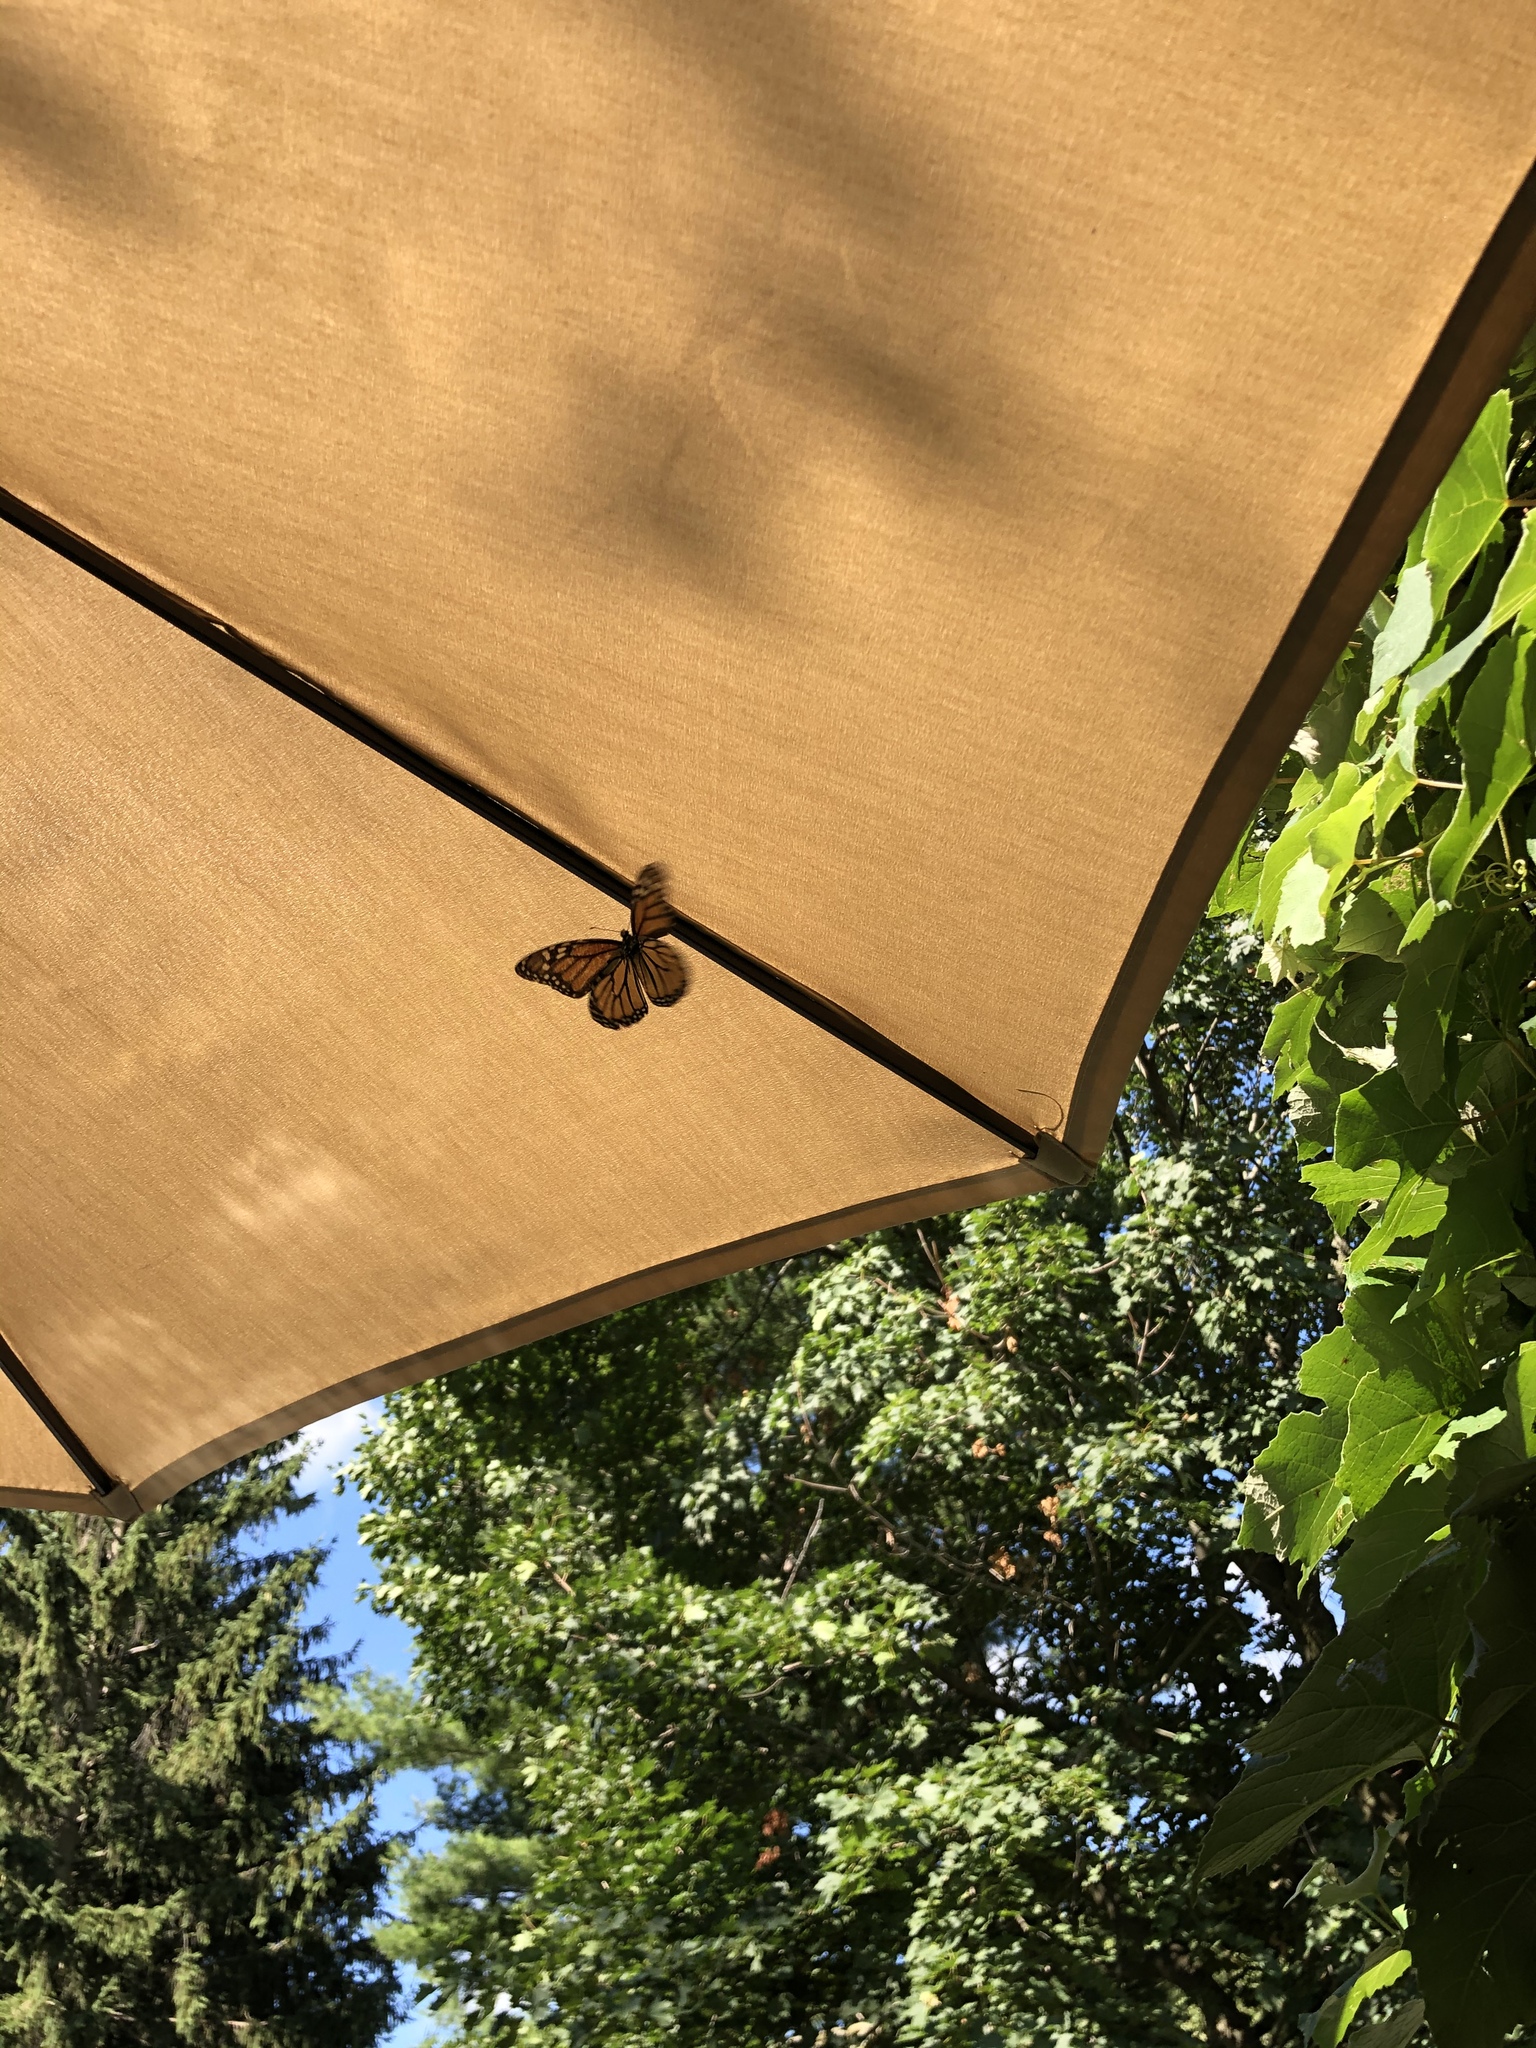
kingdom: Animalia
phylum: Arthropoda
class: Insecta
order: Lepidoptera
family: Nymphalidae
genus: Danaus
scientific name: Danaus plexippus
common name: Monarch
